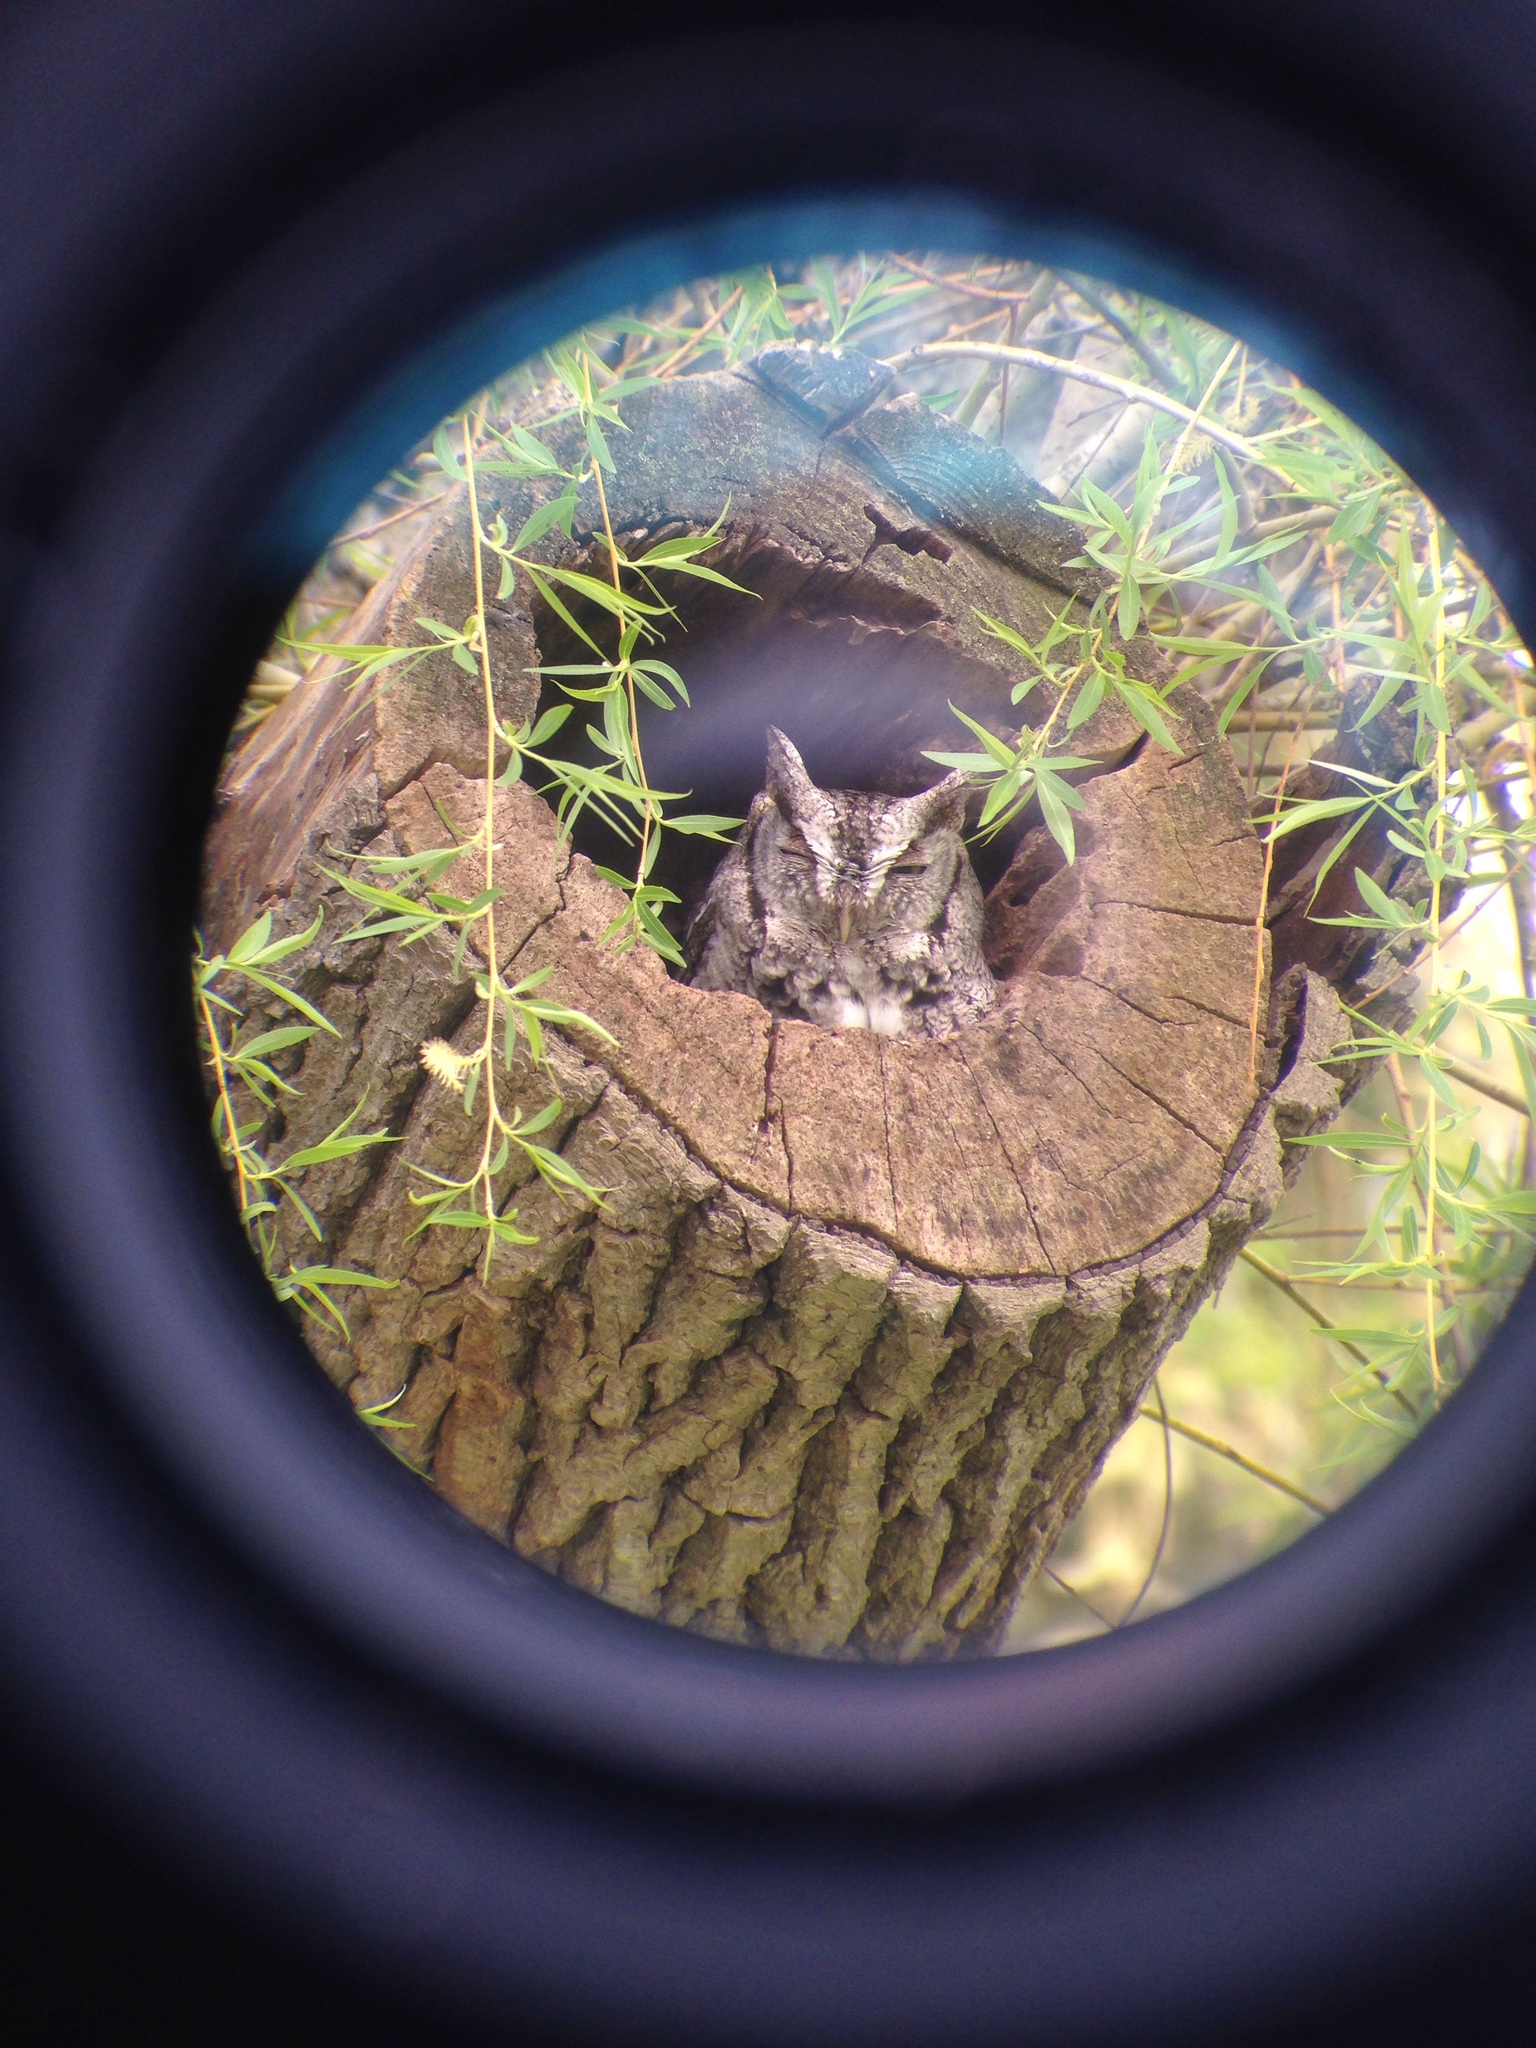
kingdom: Animalia
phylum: Chordata
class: Aves
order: Strigiformes
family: Strigidae
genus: Megascops
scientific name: Megascops asio
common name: Eastern screech-owl
